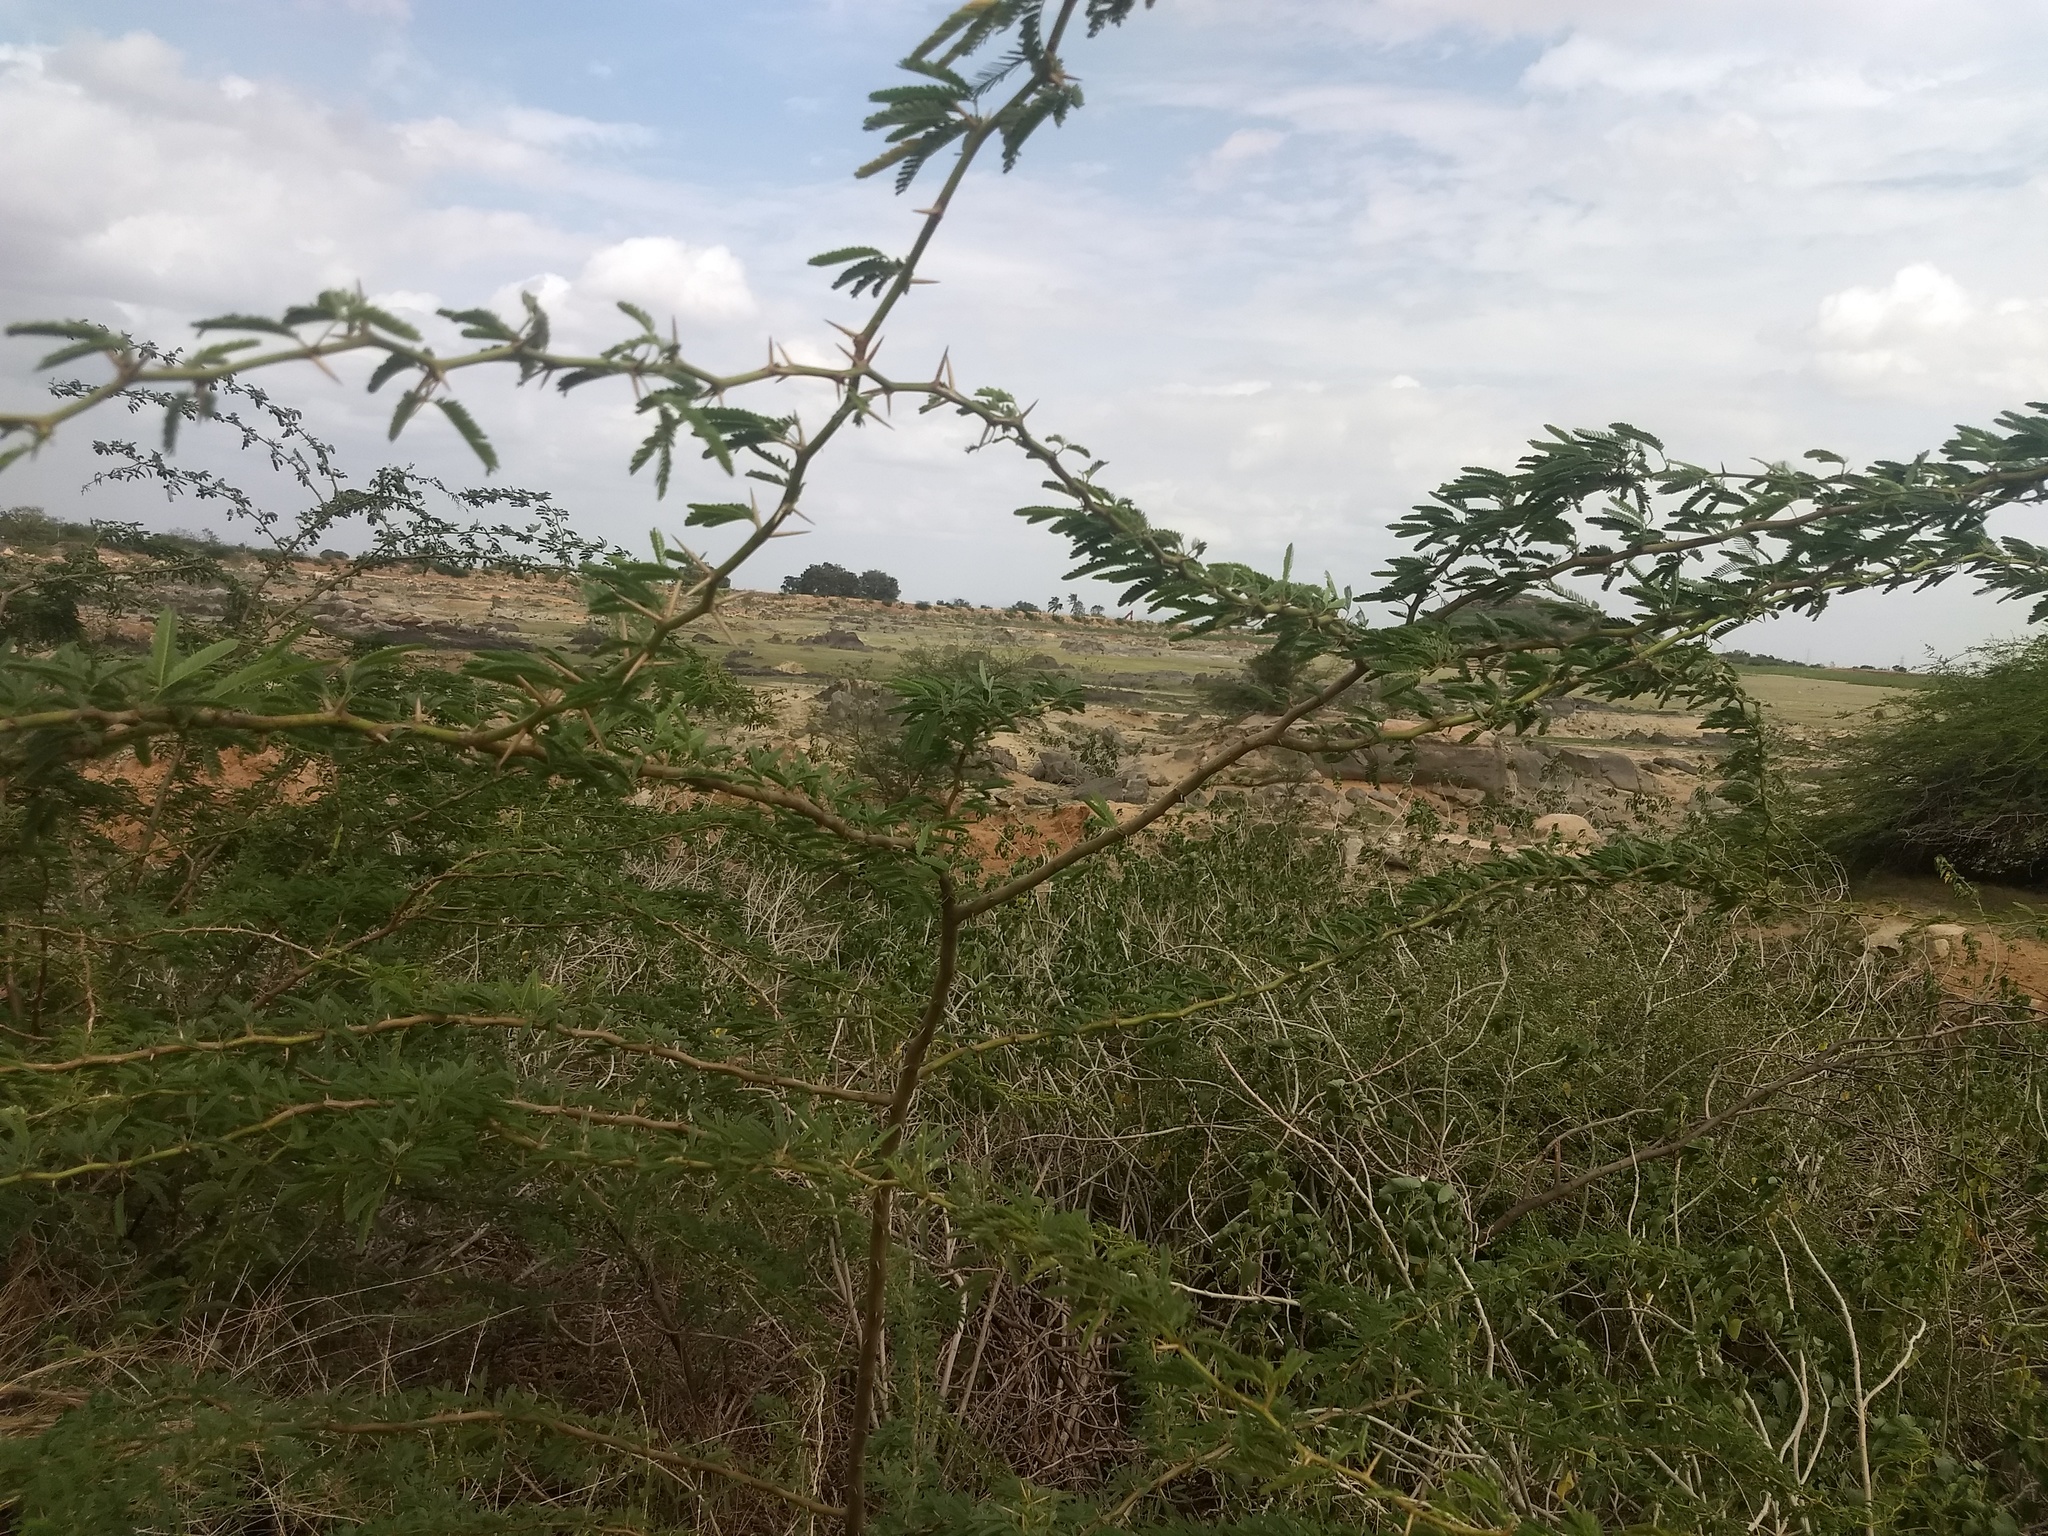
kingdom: Plantae
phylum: Tracheophyta
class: Magnoliopsida
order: Fabales
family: Fabaceae
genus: Prosopis
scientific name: Prosopis cineraria
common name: Jandi
